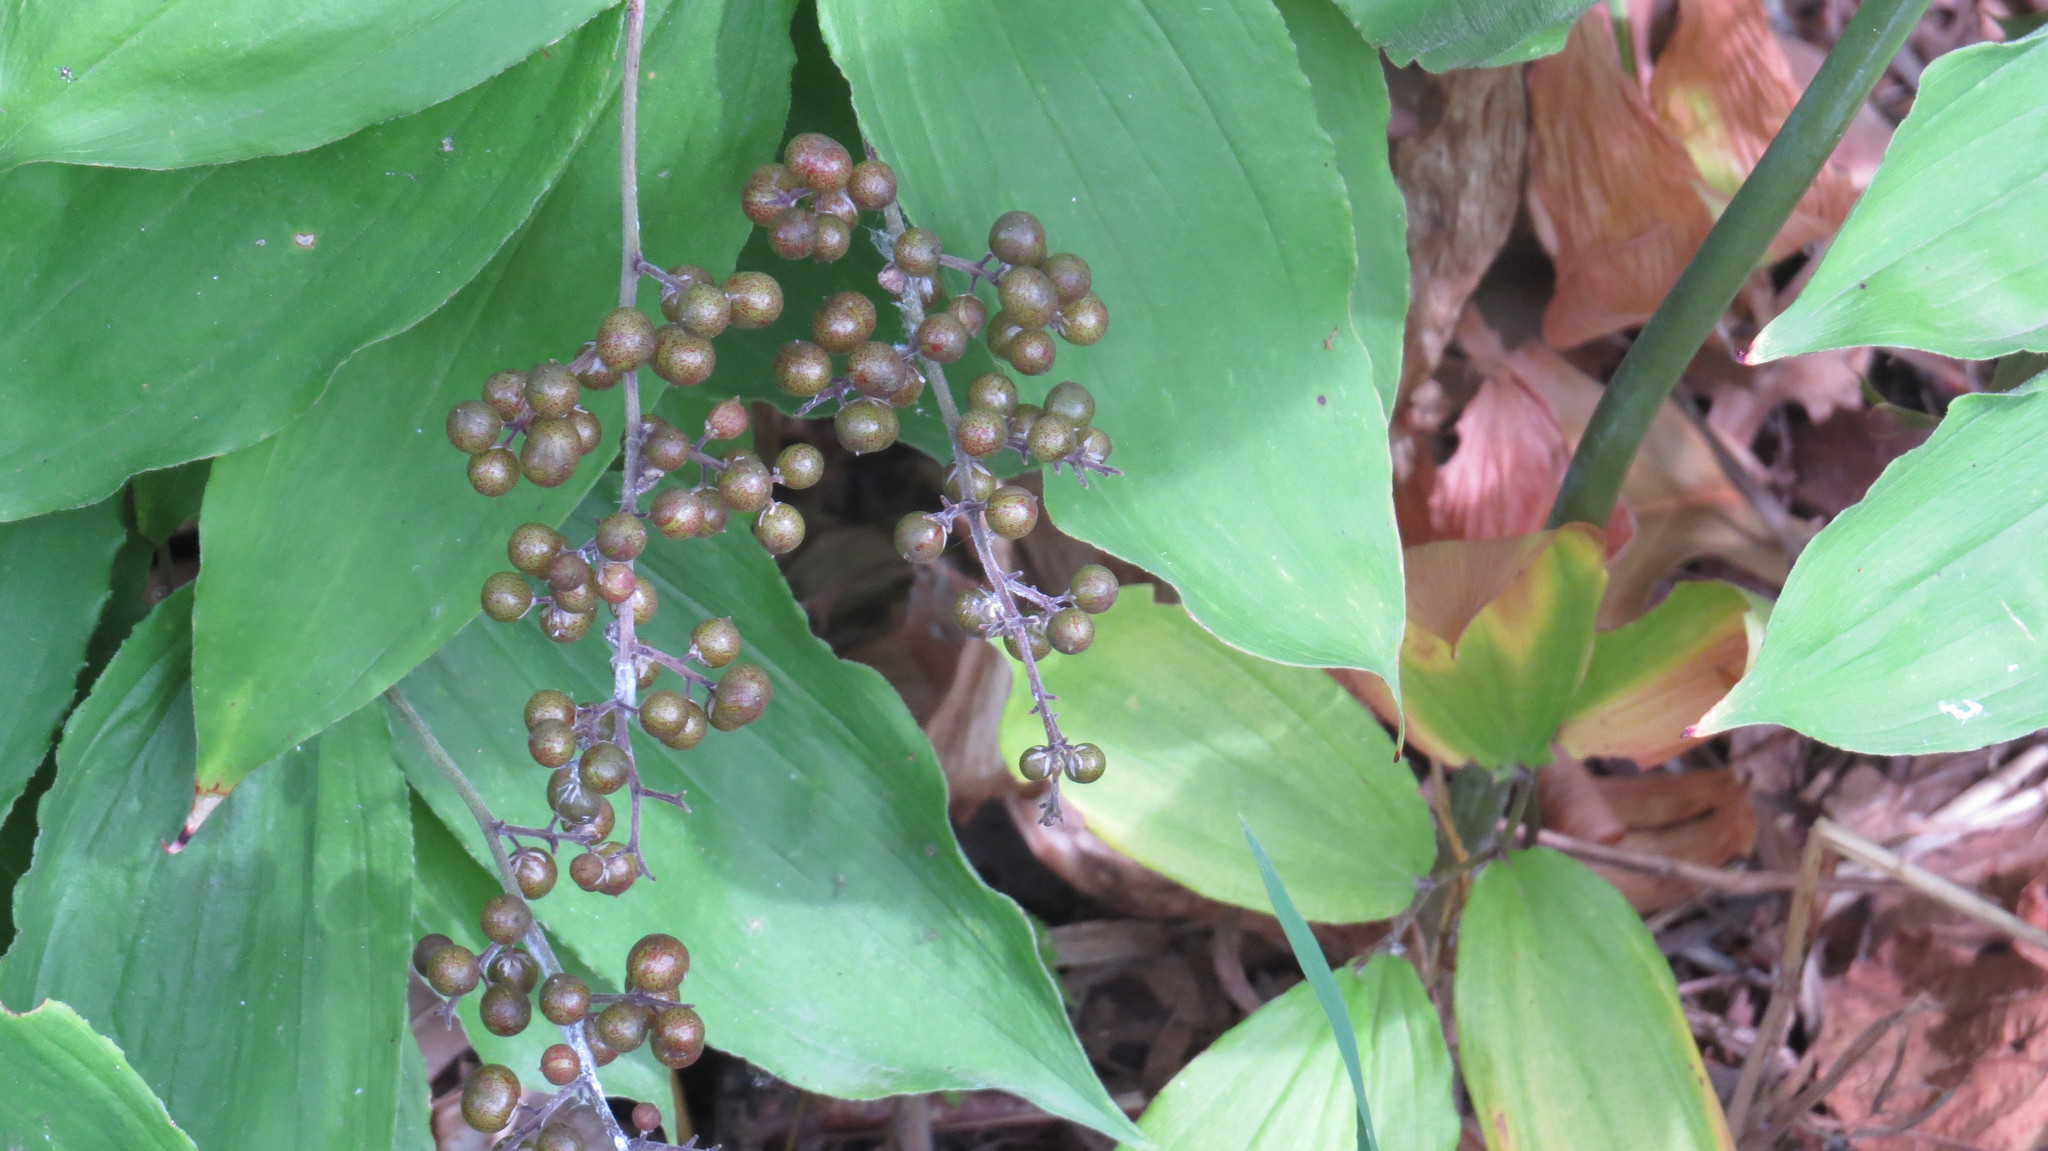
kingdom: Plantae
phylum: Tracheophyta
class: Liliopsida
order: Asparagales
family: Asparagaceae
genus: Maianthemum
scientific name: Maianthemum racemosum
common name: False spikenard
